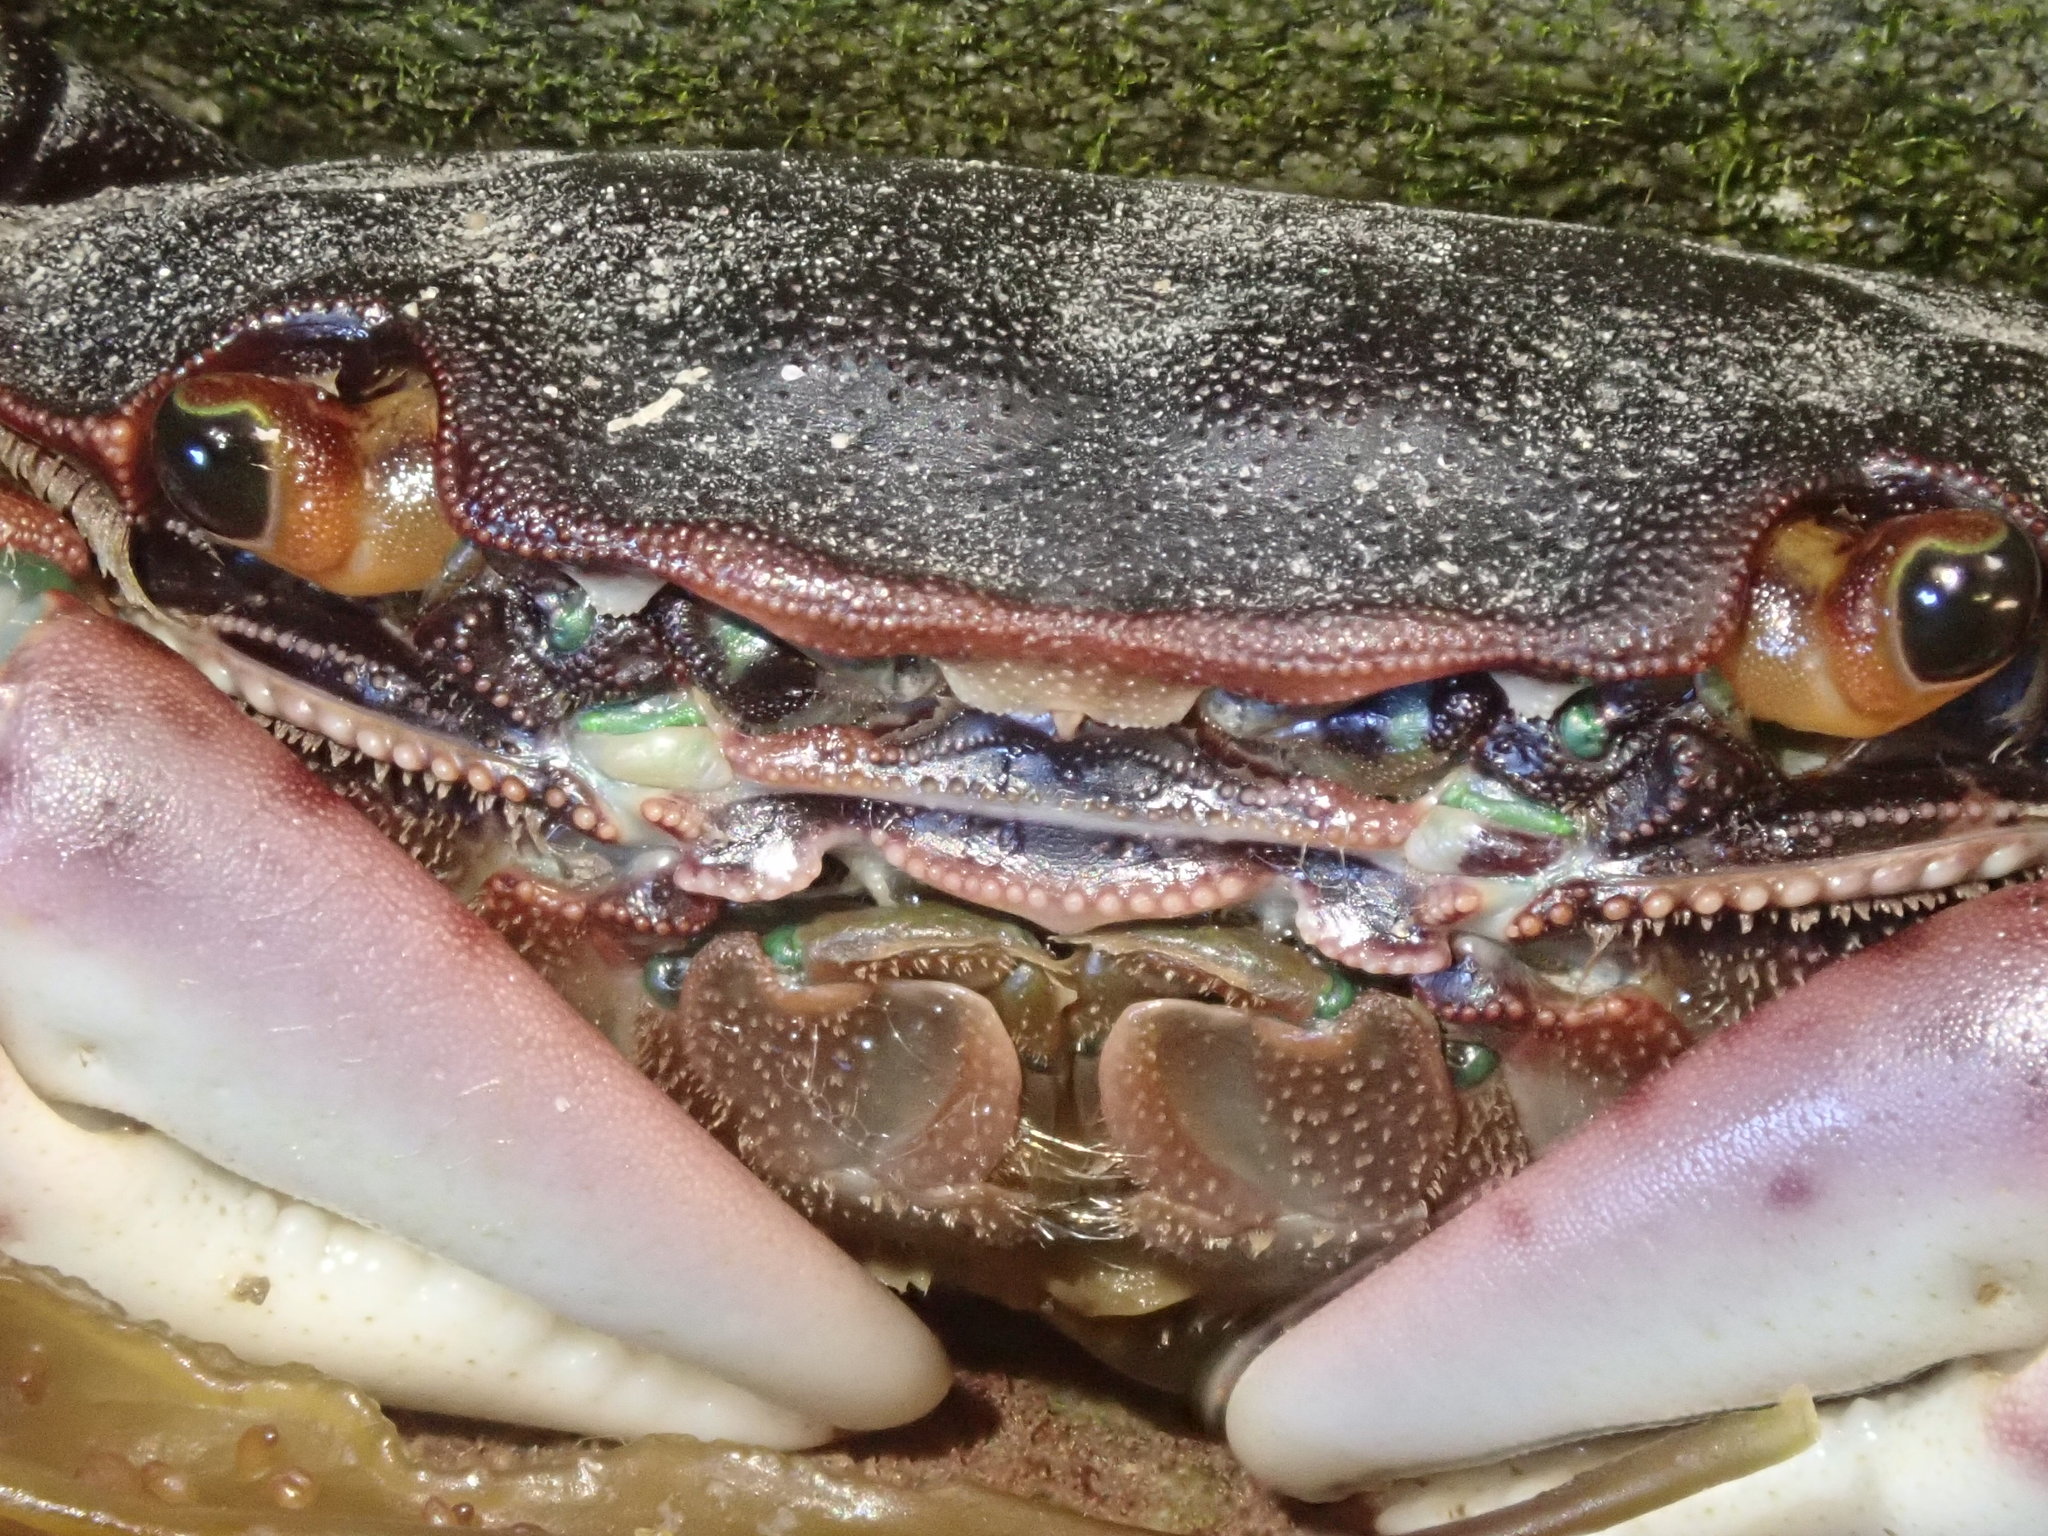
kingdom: Animalia
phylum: Arthropoda
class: Malacostraca
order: Decapoda
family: Varunidae
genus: Hemigrapsus
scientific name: Hemigrapsus nudus
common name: Purple shore crab
